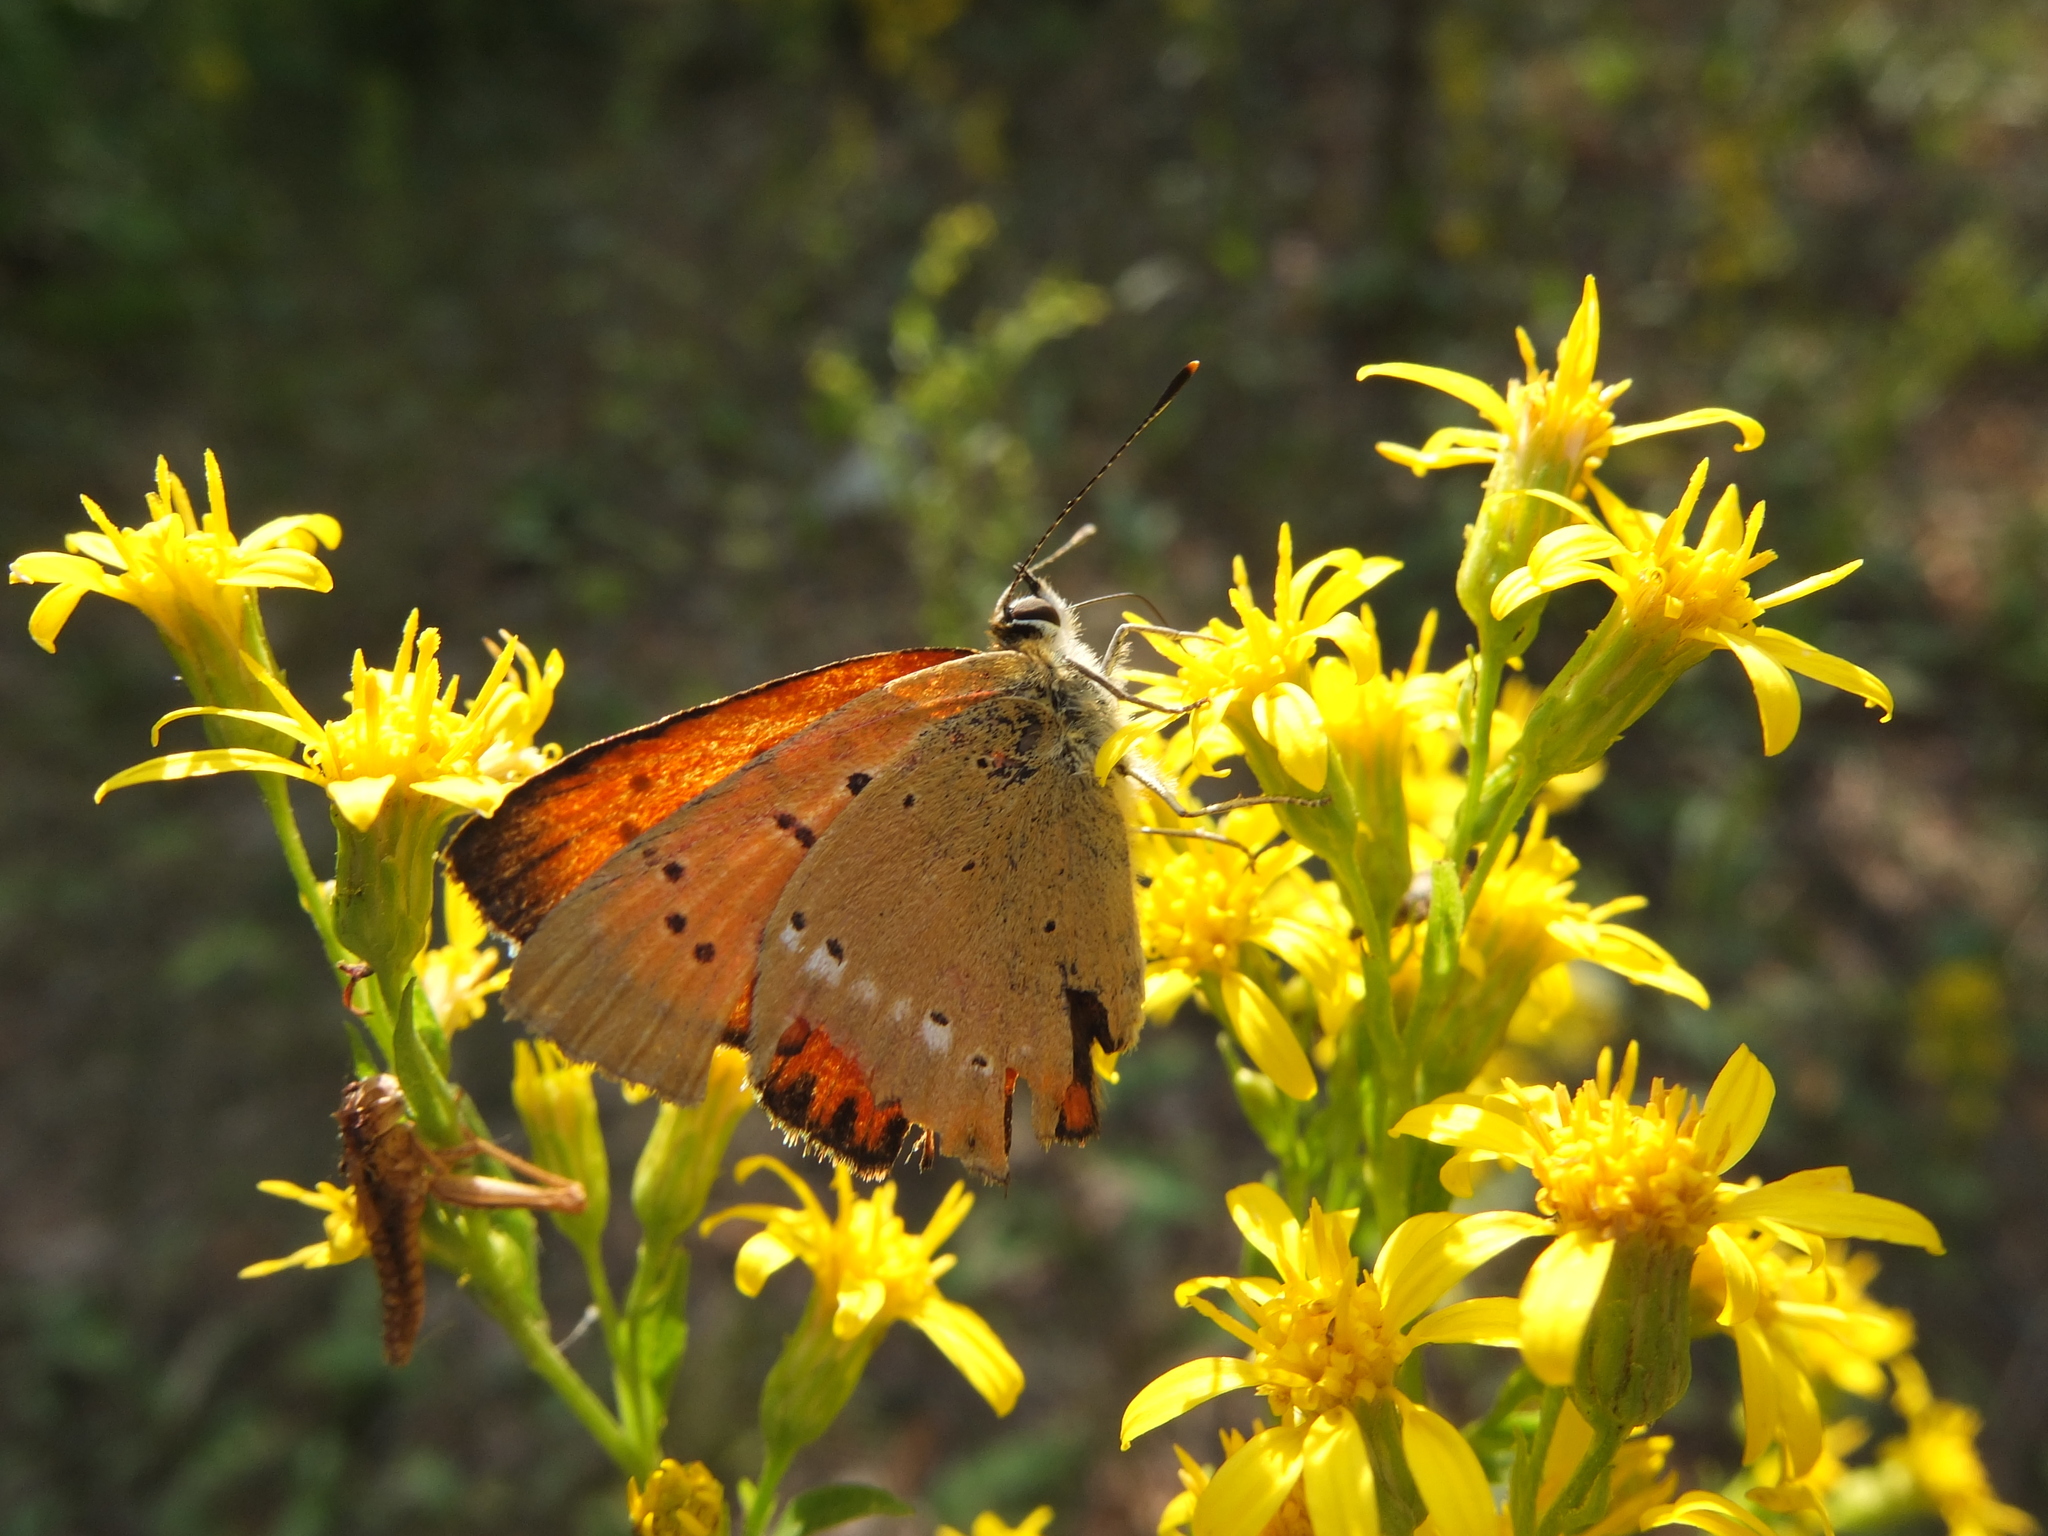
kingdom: Animalia
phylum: Arthropoda
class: Insecta
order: Lepidoptera
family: Lycaenidae
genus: Lycaena
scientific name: Lycaena virgaureae
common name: Scarce copper
